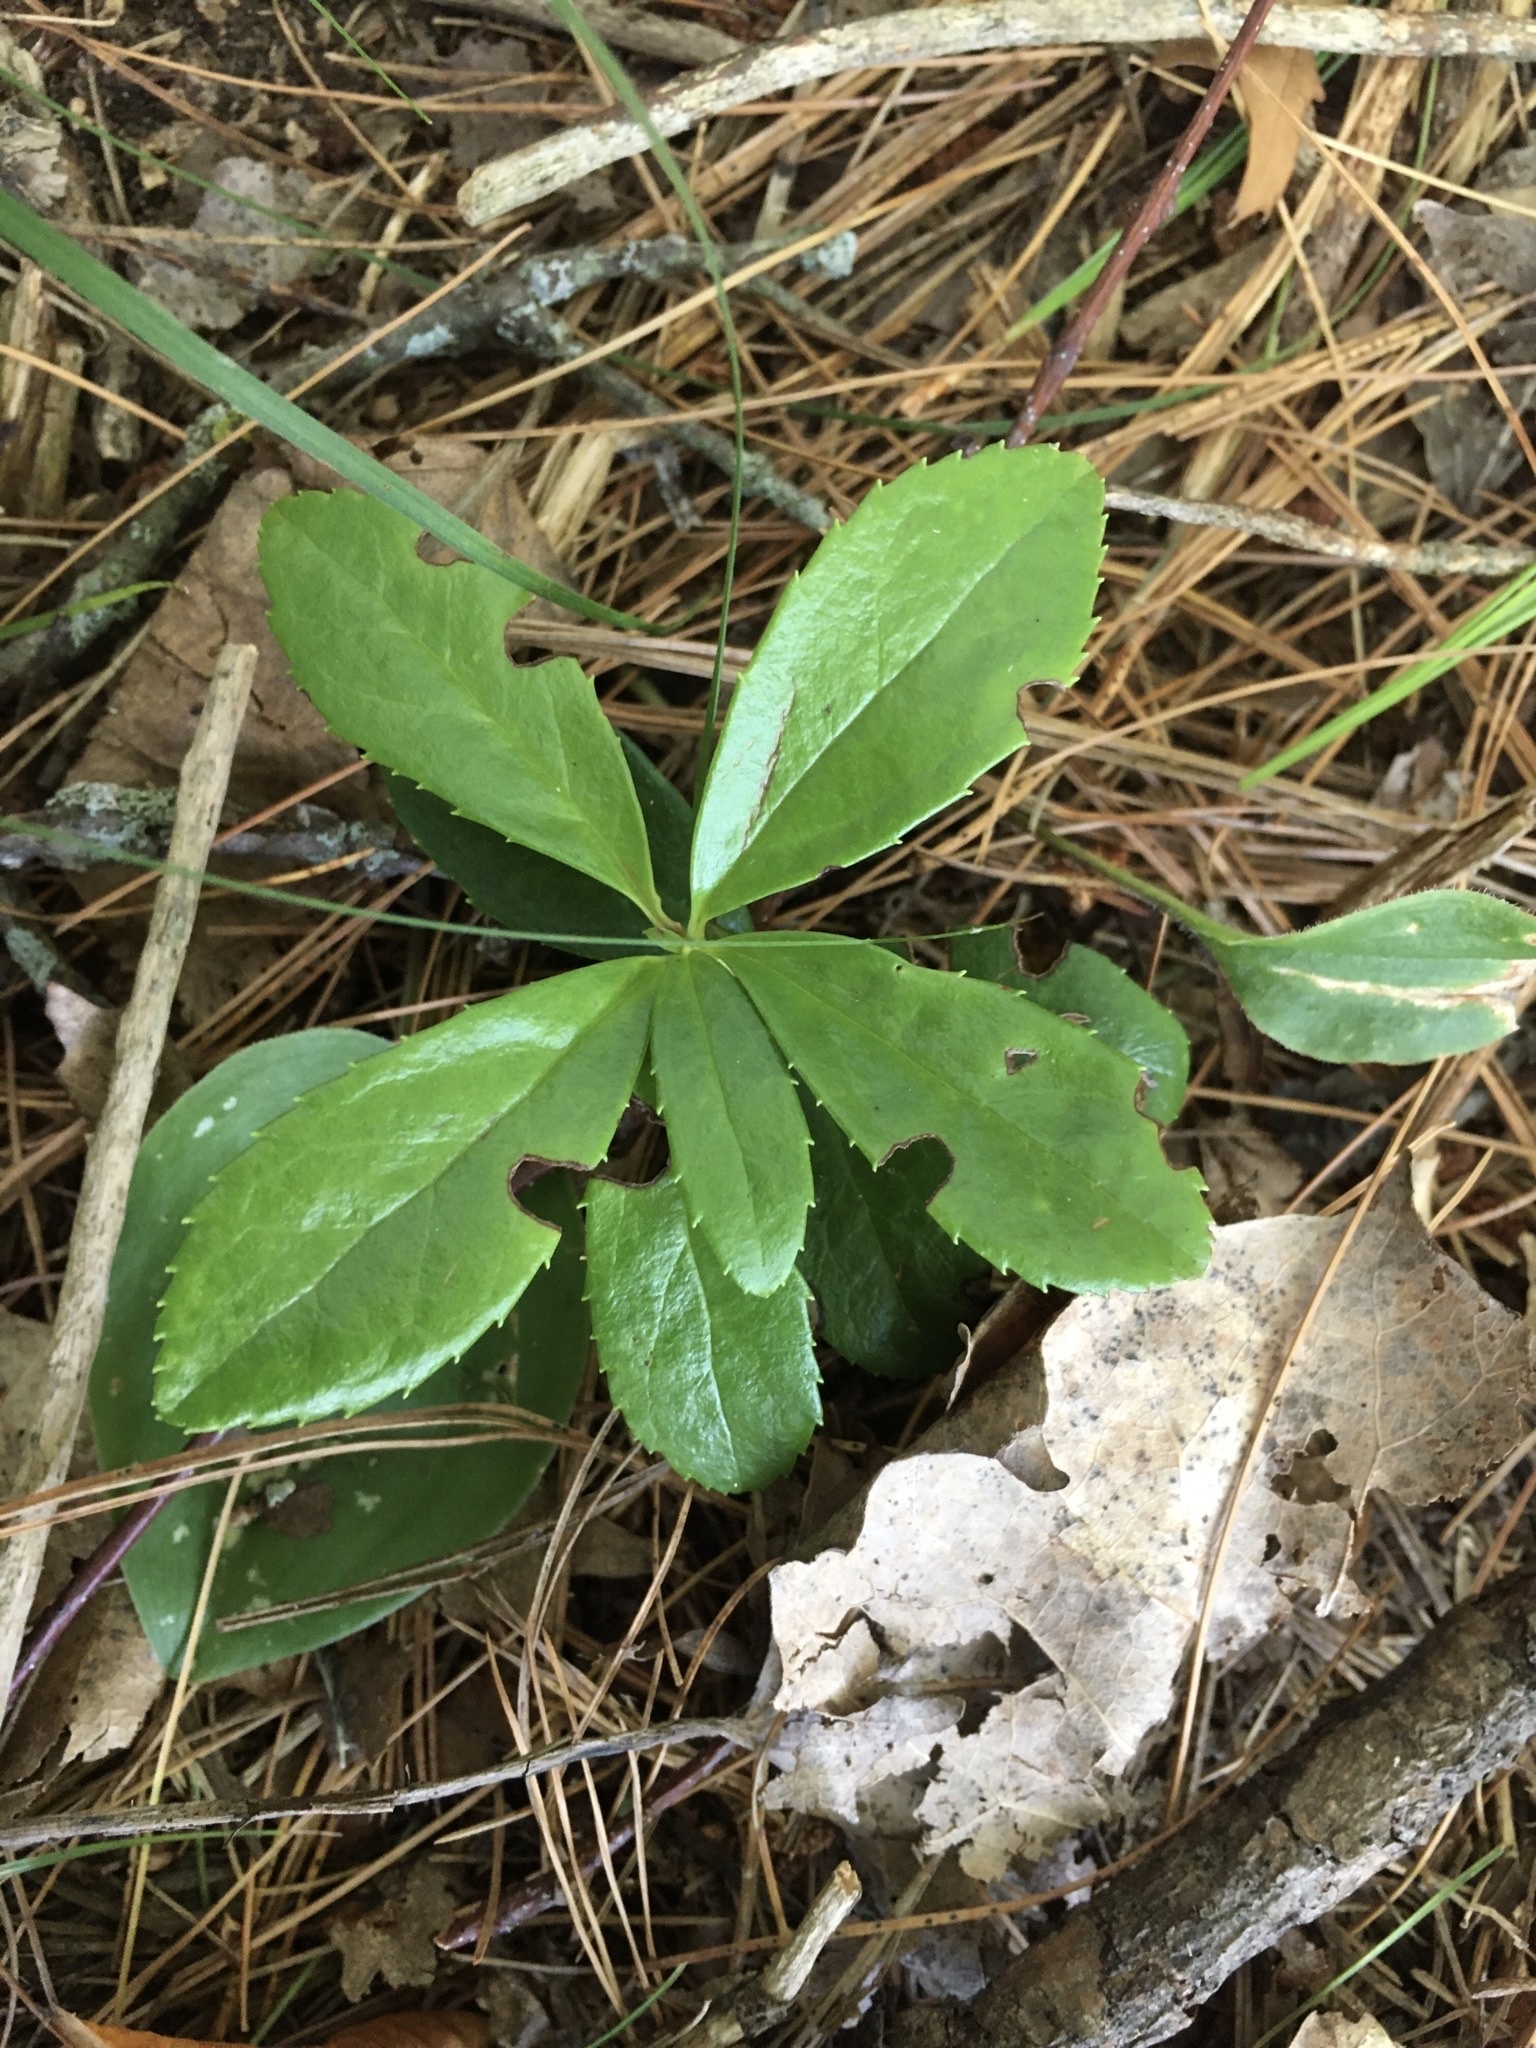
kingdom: Plantae
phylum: Tracheophyta
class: Magnoliopsida
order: Ericales
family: Ericaceae
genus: Chimaphila
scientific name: Chimaphila umbellata
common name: Pipsissewa
